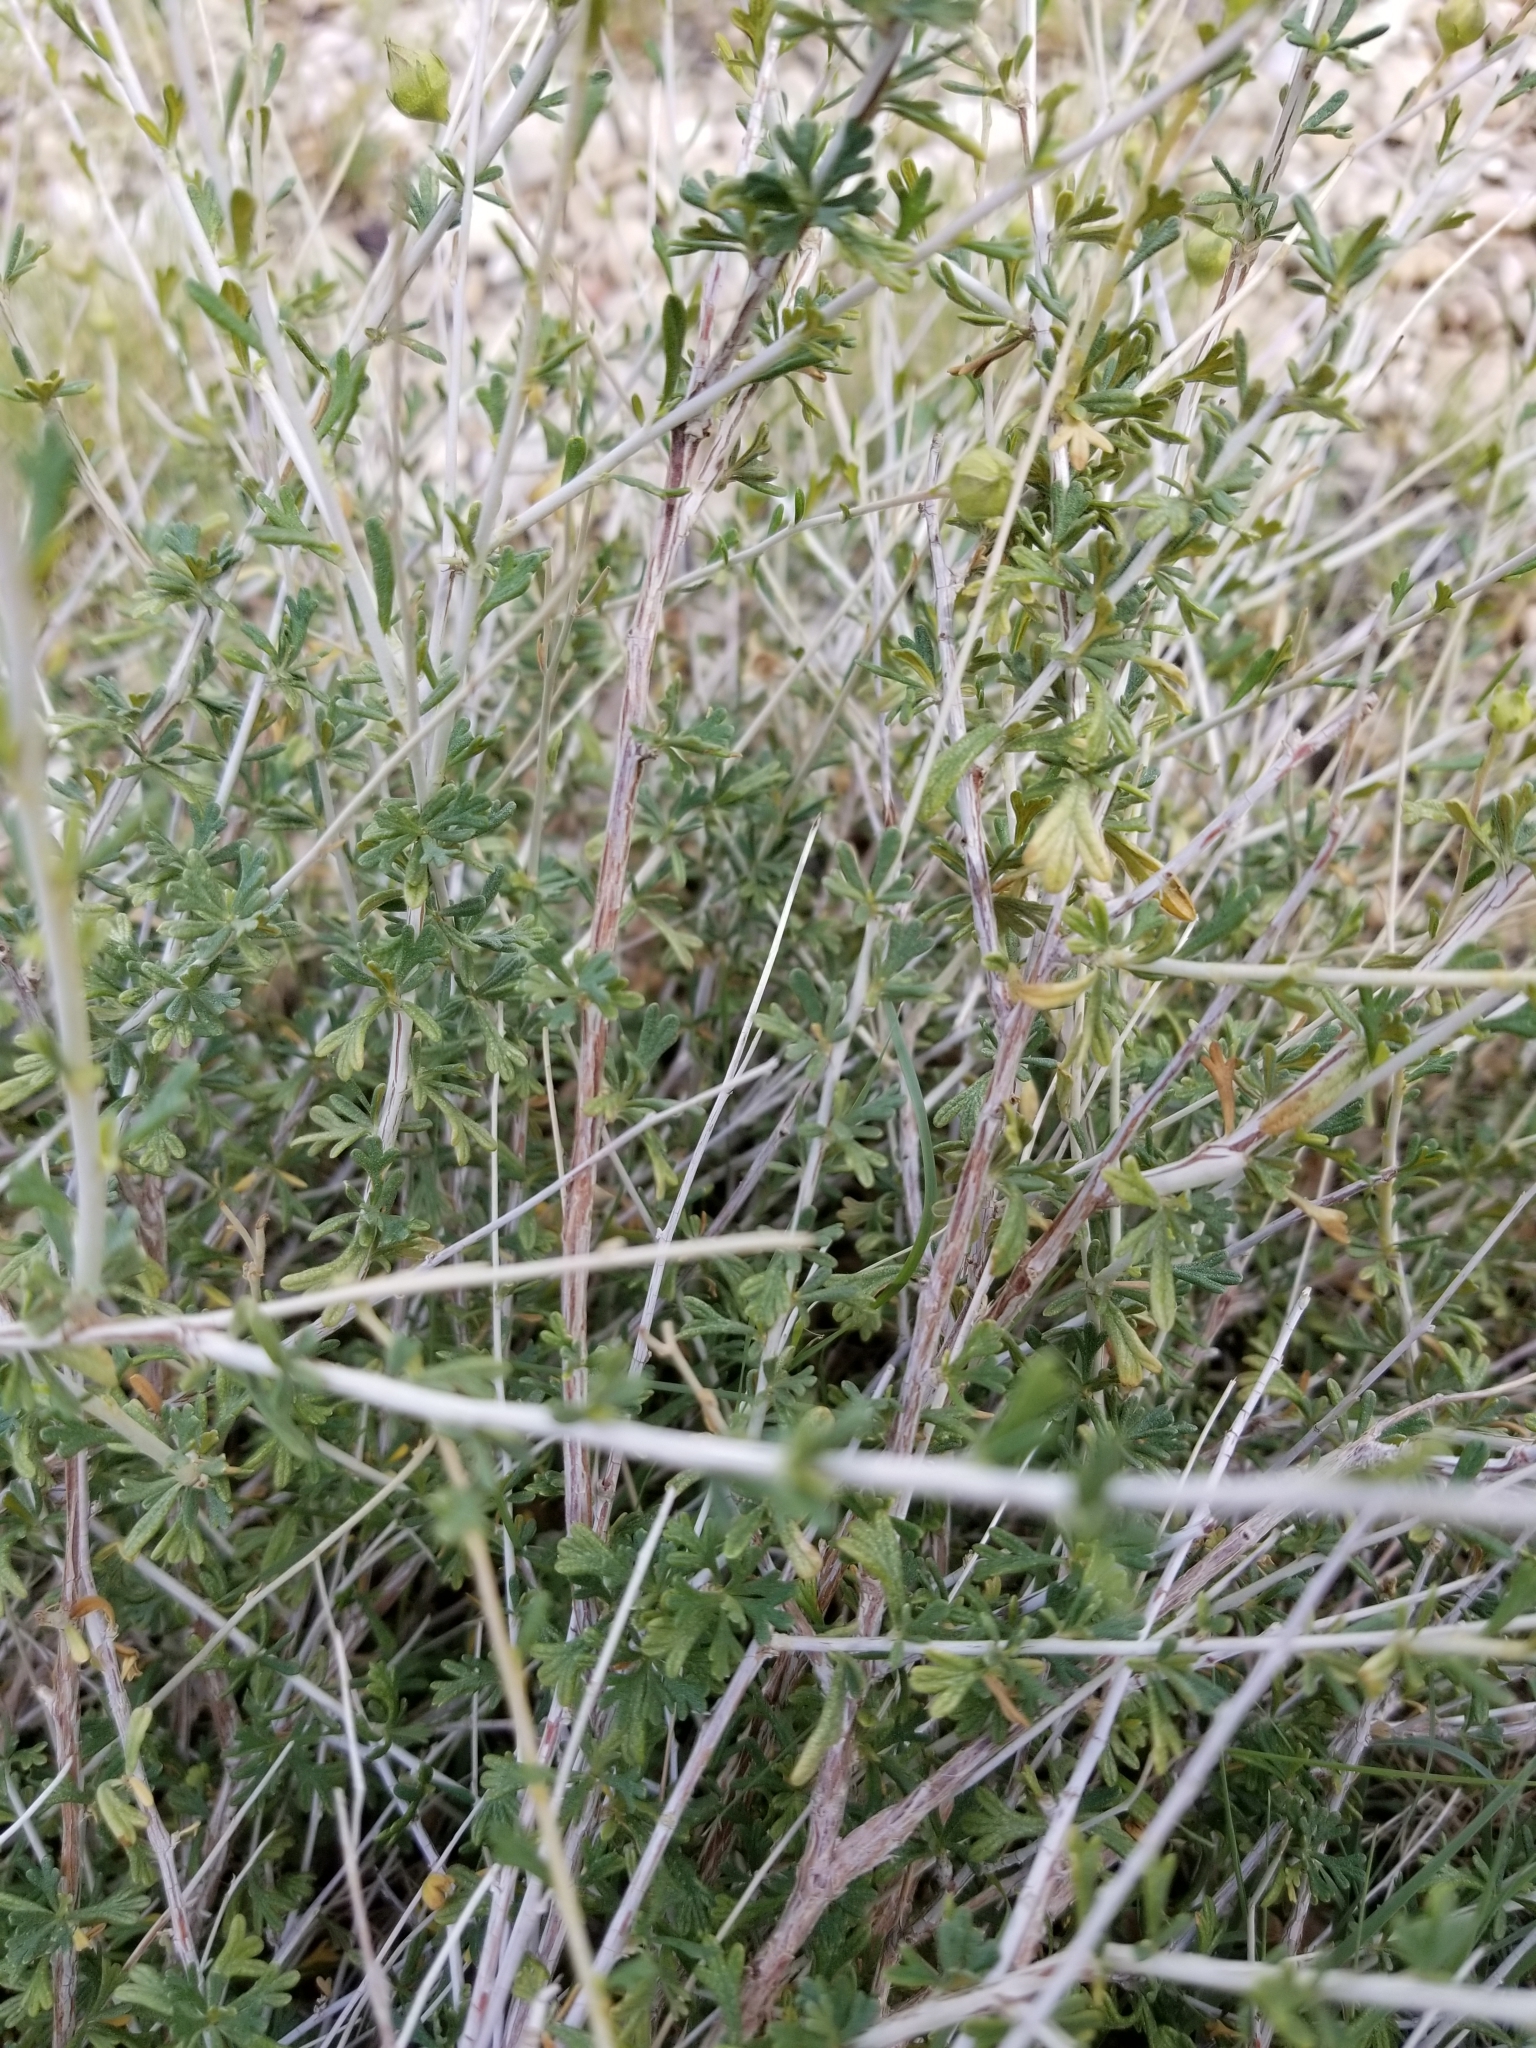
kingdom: Plantae
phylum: Tracheophyta
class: Magnoliopsida
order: Rosales
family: Rosaceae
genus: Fallugia
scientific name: Fallugia paradoxa
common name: Apache-plume
